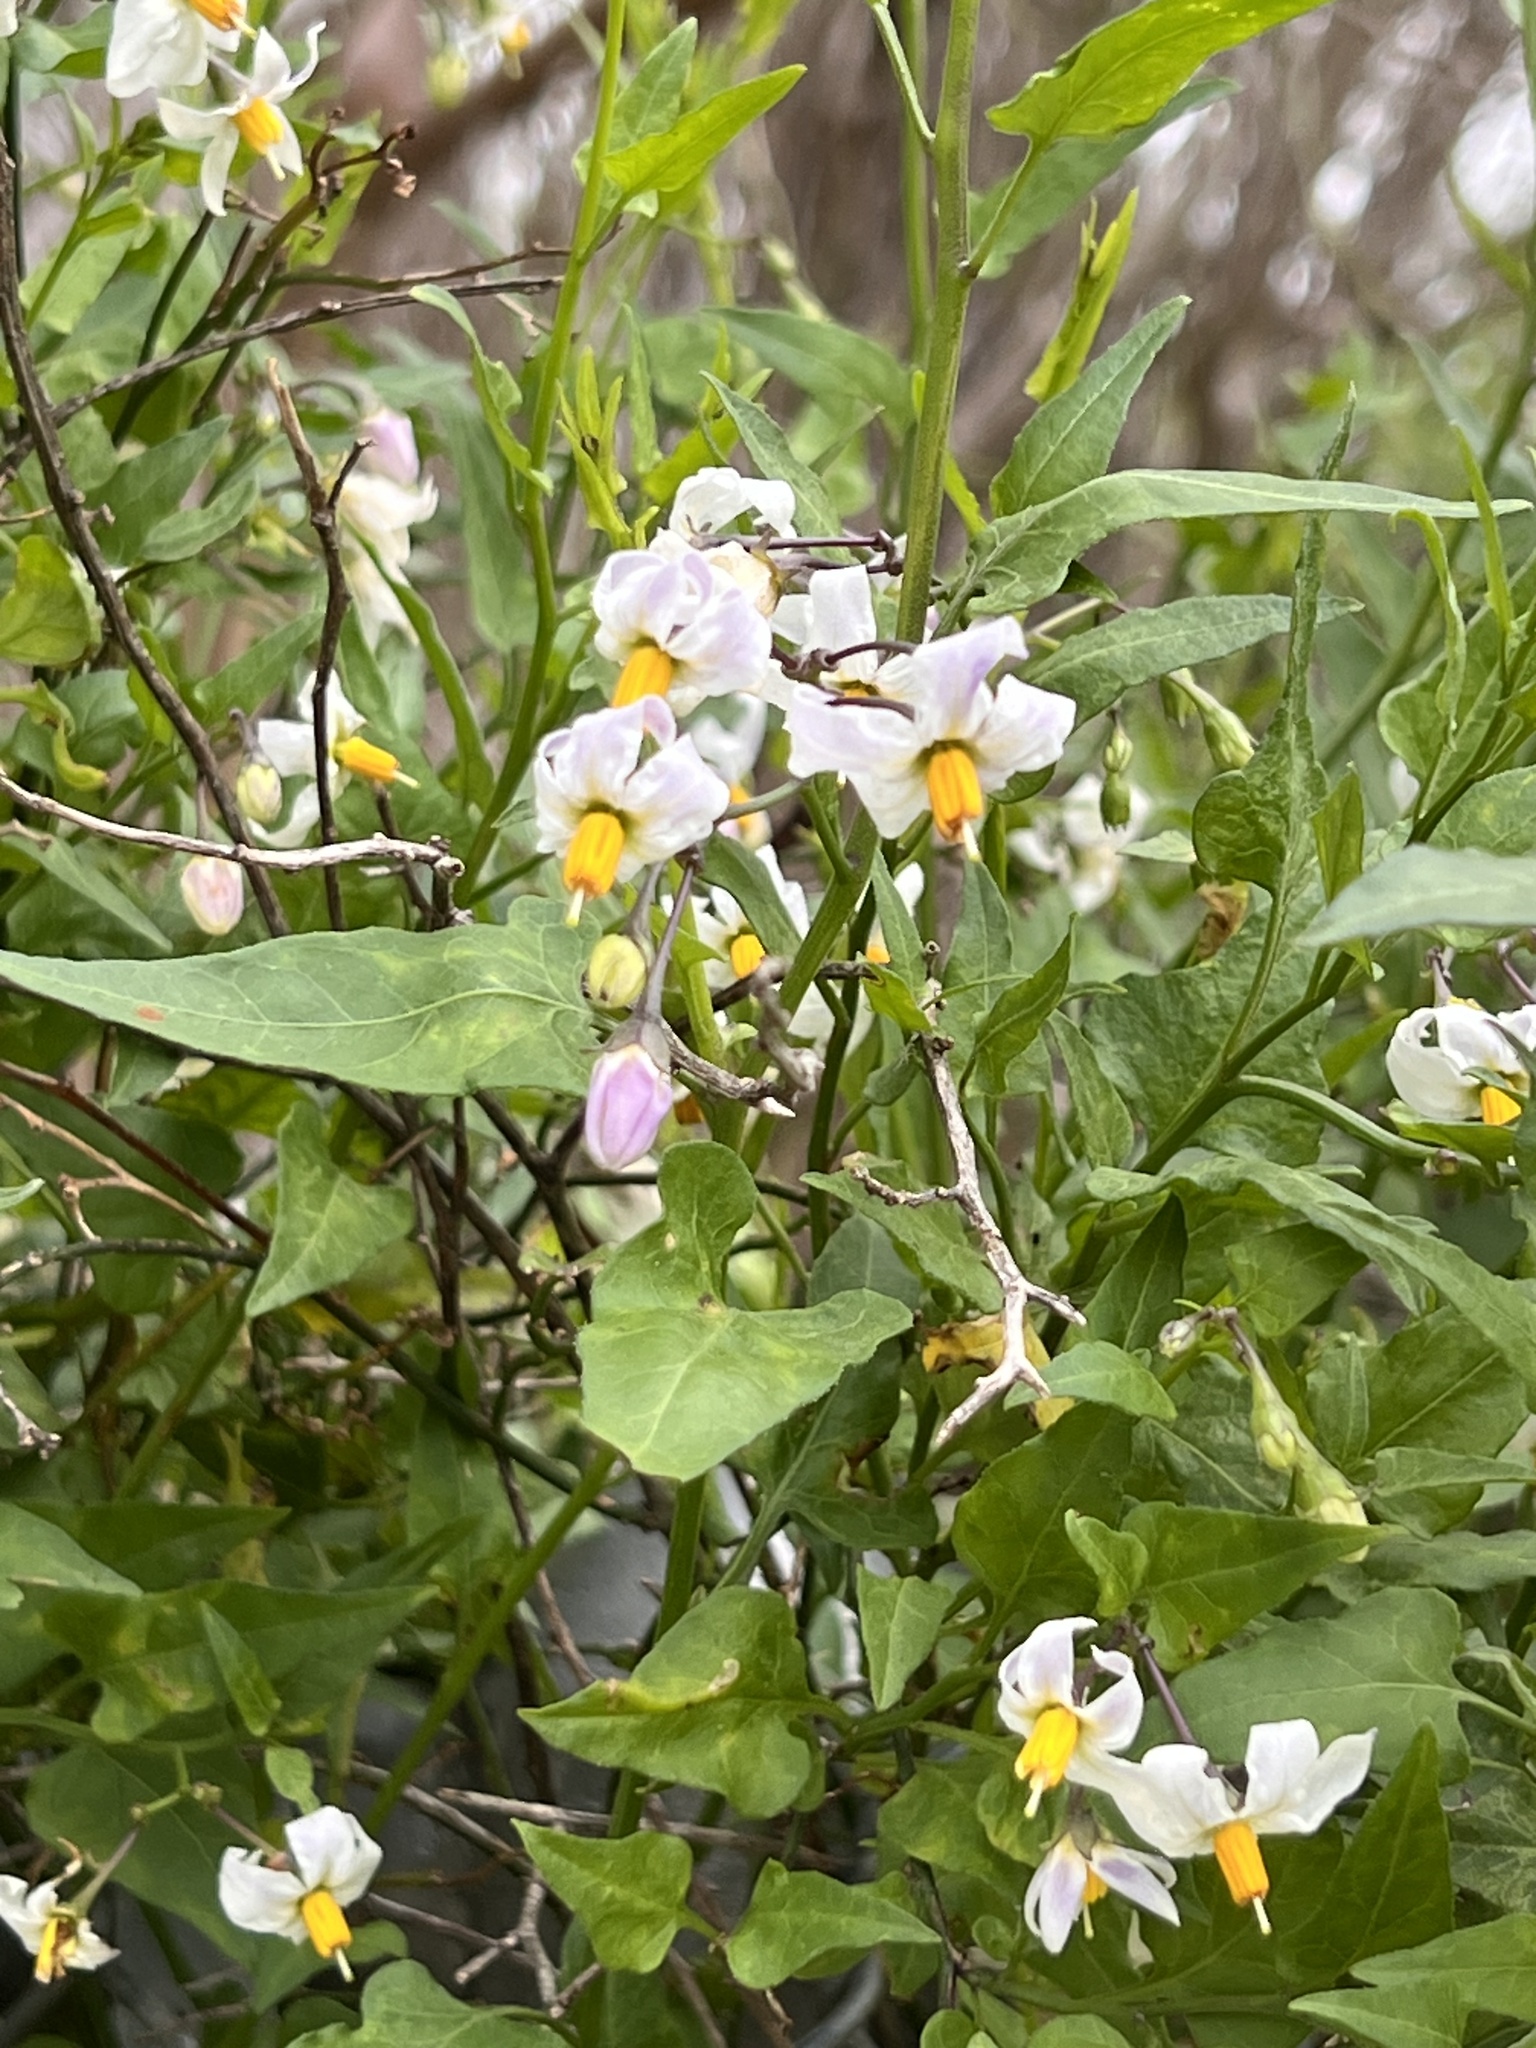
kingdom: Plantae
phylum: Tracheophyta
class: Magnoliopsida
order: Solanales
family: Solanaceae
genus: Solanum
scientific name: Solanum triquetrum
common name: Texas nightshade
